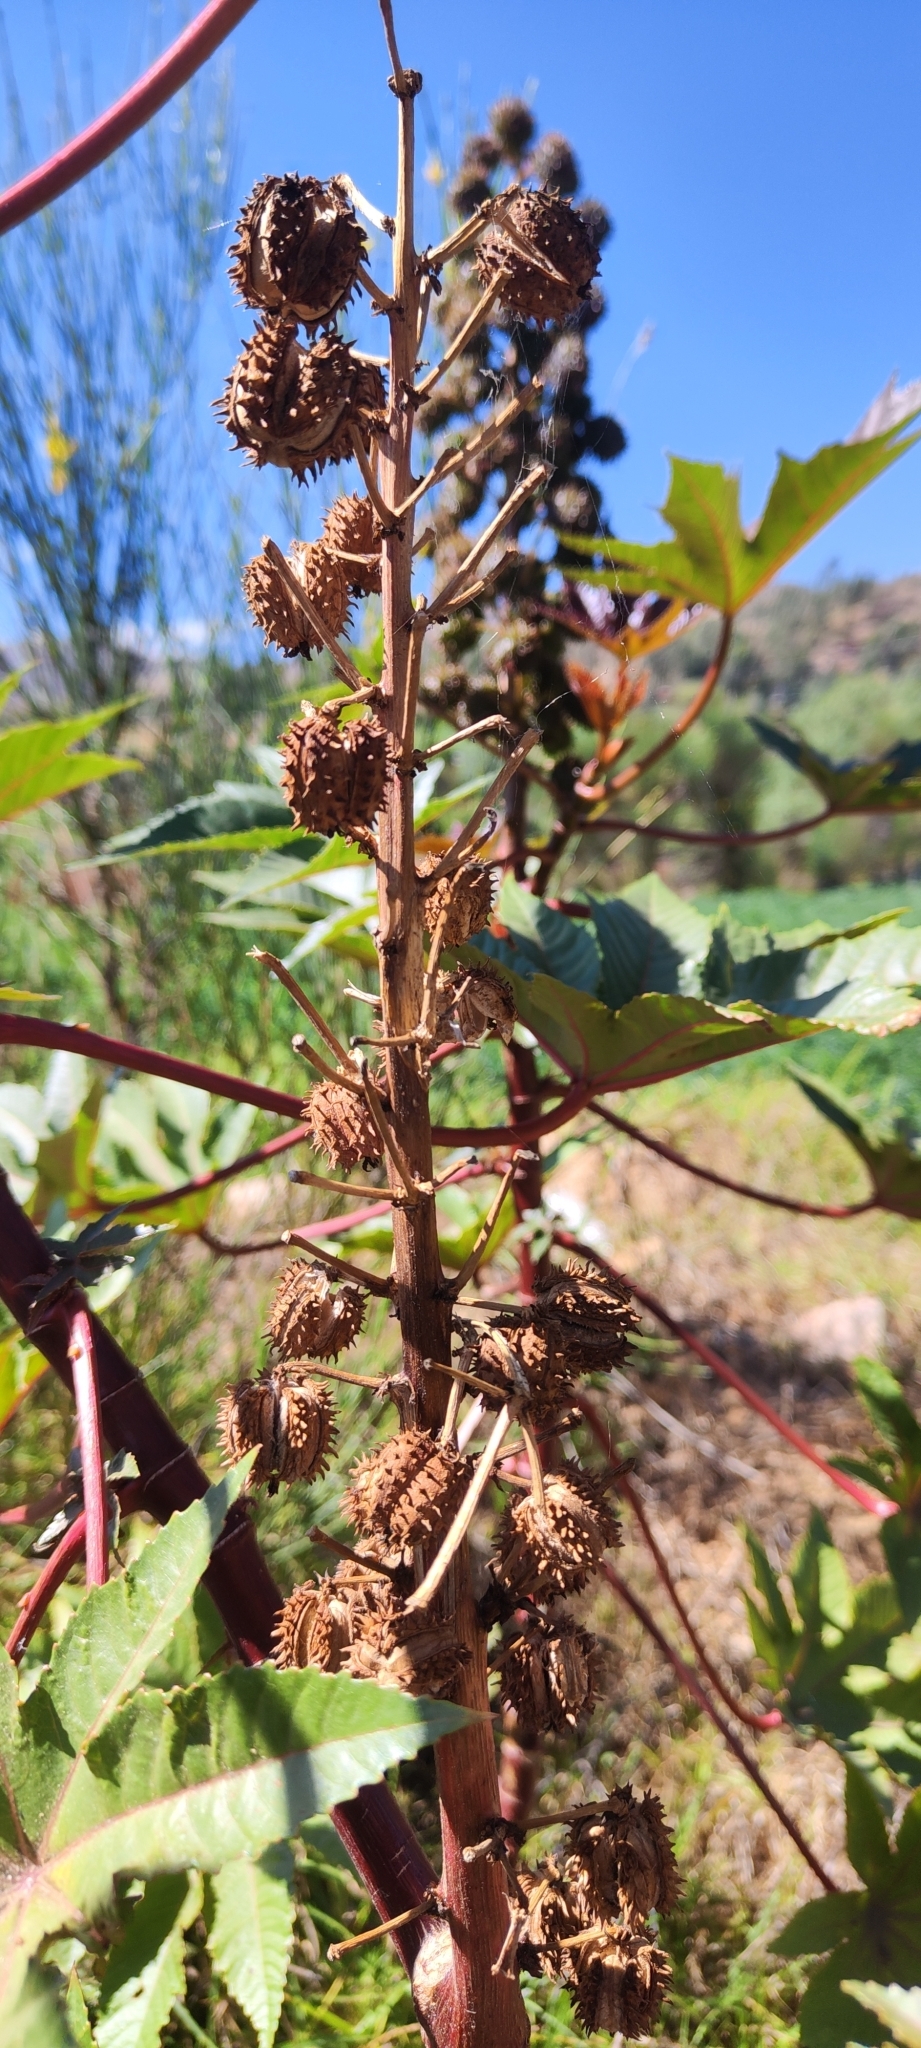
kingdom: Plantae
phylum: Tracheophyta
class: Magnoliopsida
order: Malpighiales
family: Euphorbiaceae
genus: Ricinus
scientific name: Ricinus communis
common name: Castor-oil-plant
